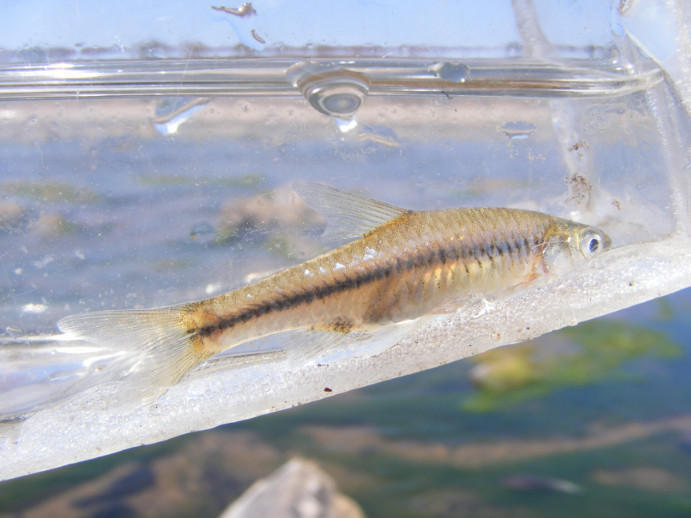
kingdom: Animalia
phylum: Chordata
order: Cypriniformes
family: Cyprinidae
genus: Enteromius
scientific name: Enteromius unitaeniatus
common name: Longbeard barb
